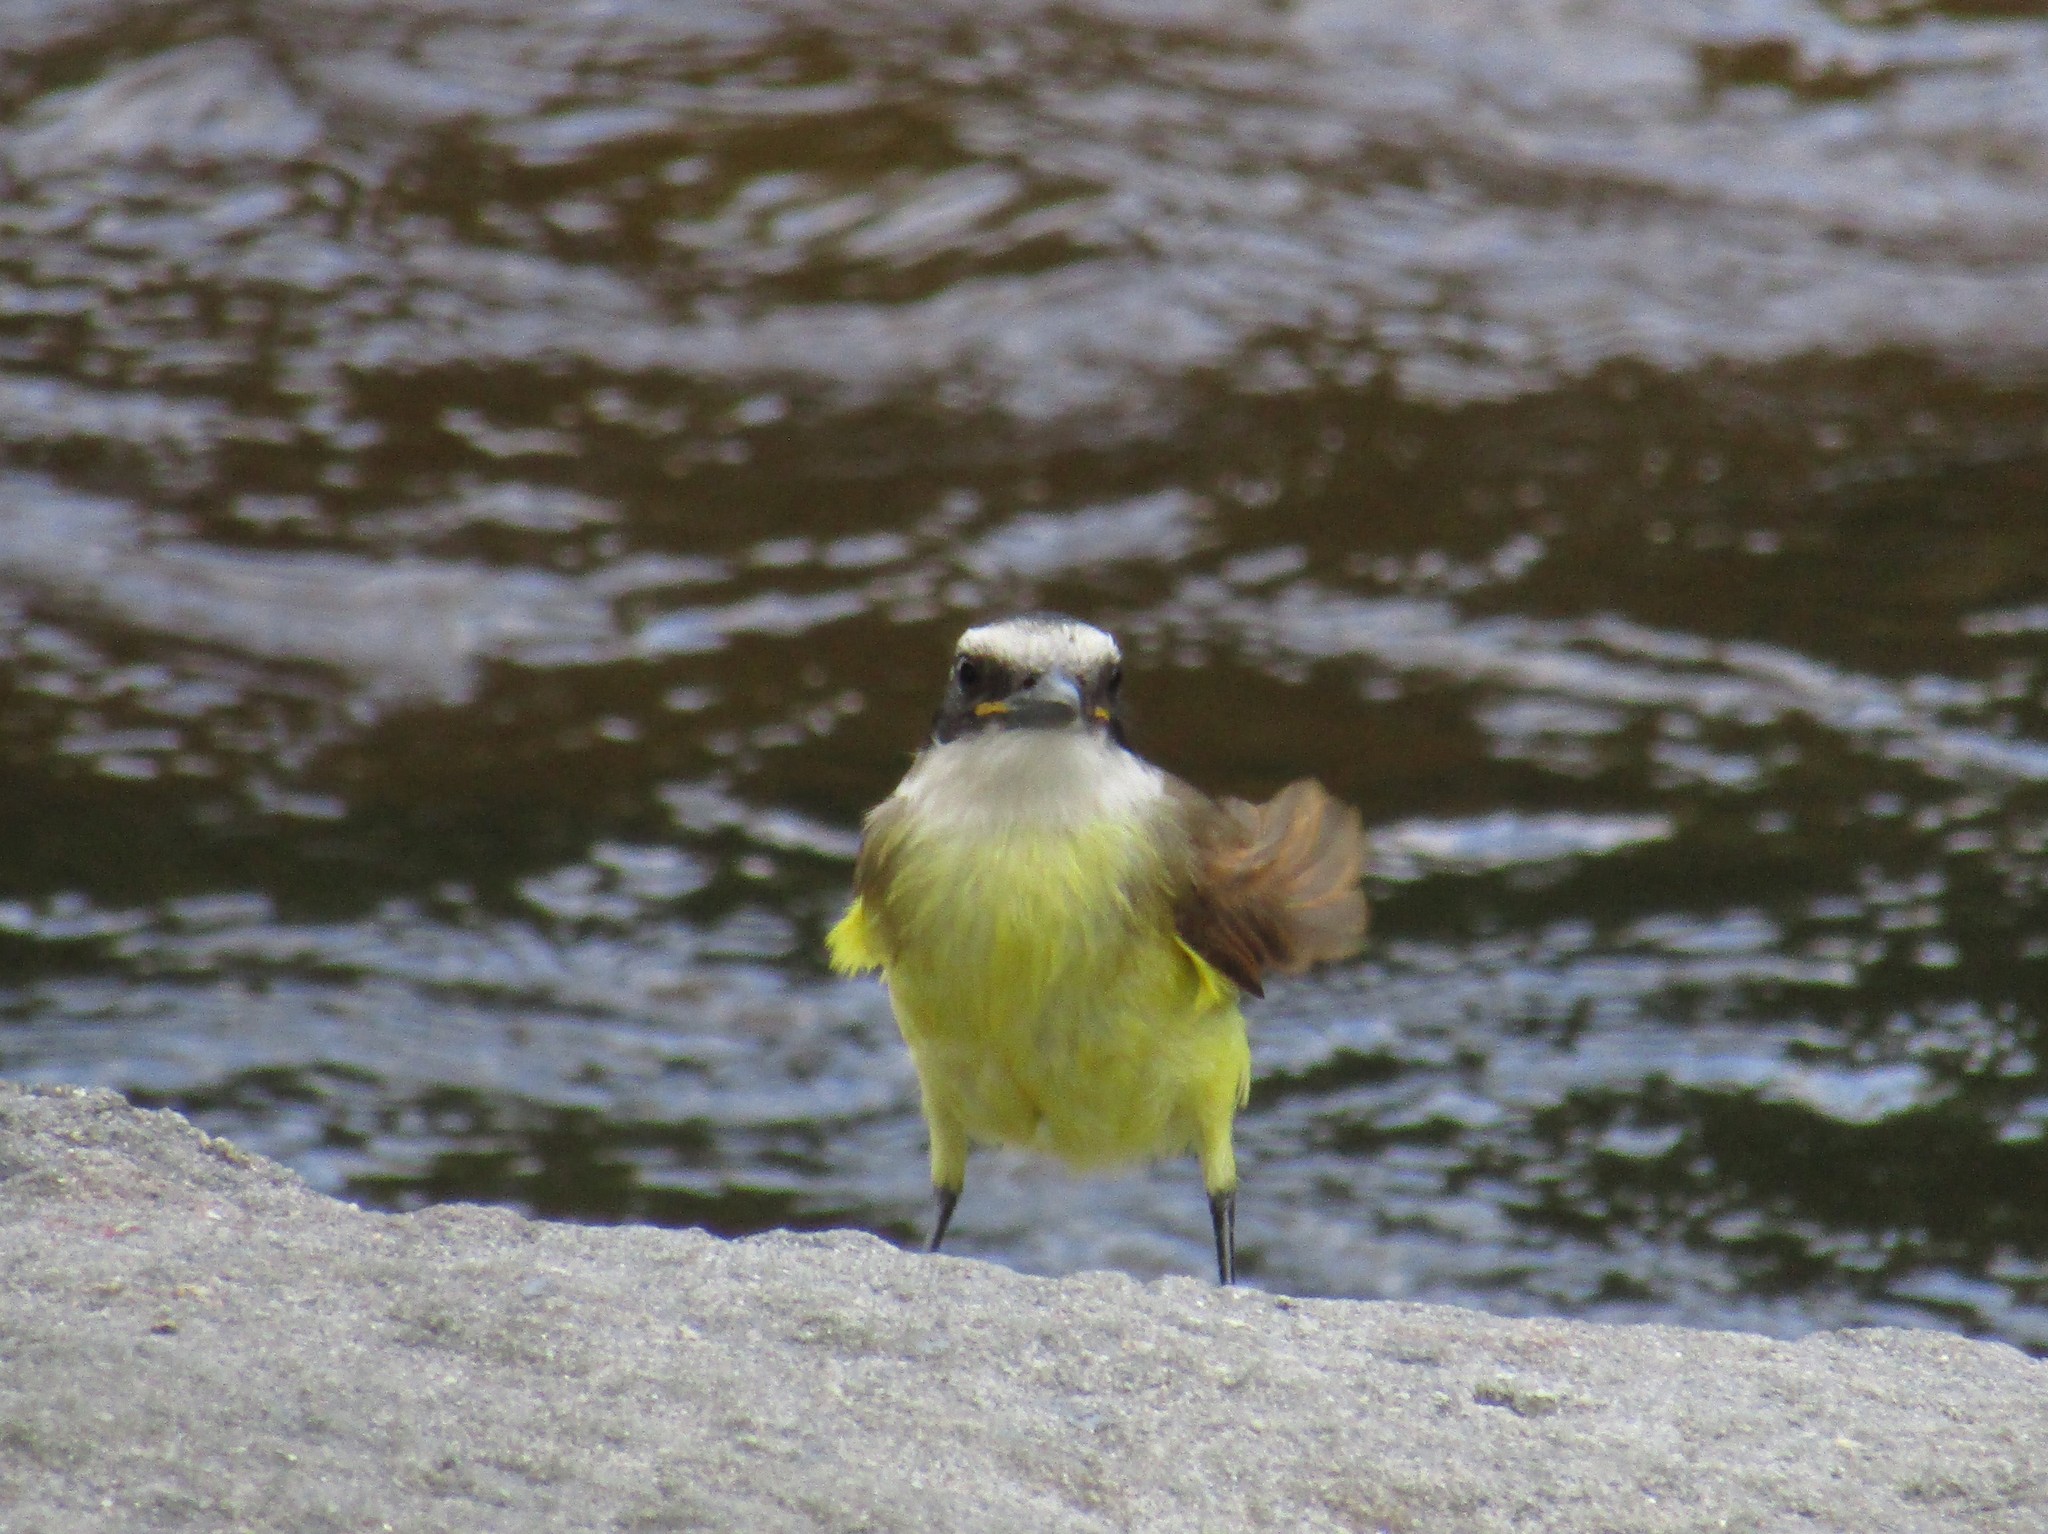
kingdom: Animalia
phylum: Chordata
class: Aves
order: Passeriformes
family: Tyrannidae
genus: Pitangus
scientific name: Pitangus sulphuratus
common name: Great kiskadee
